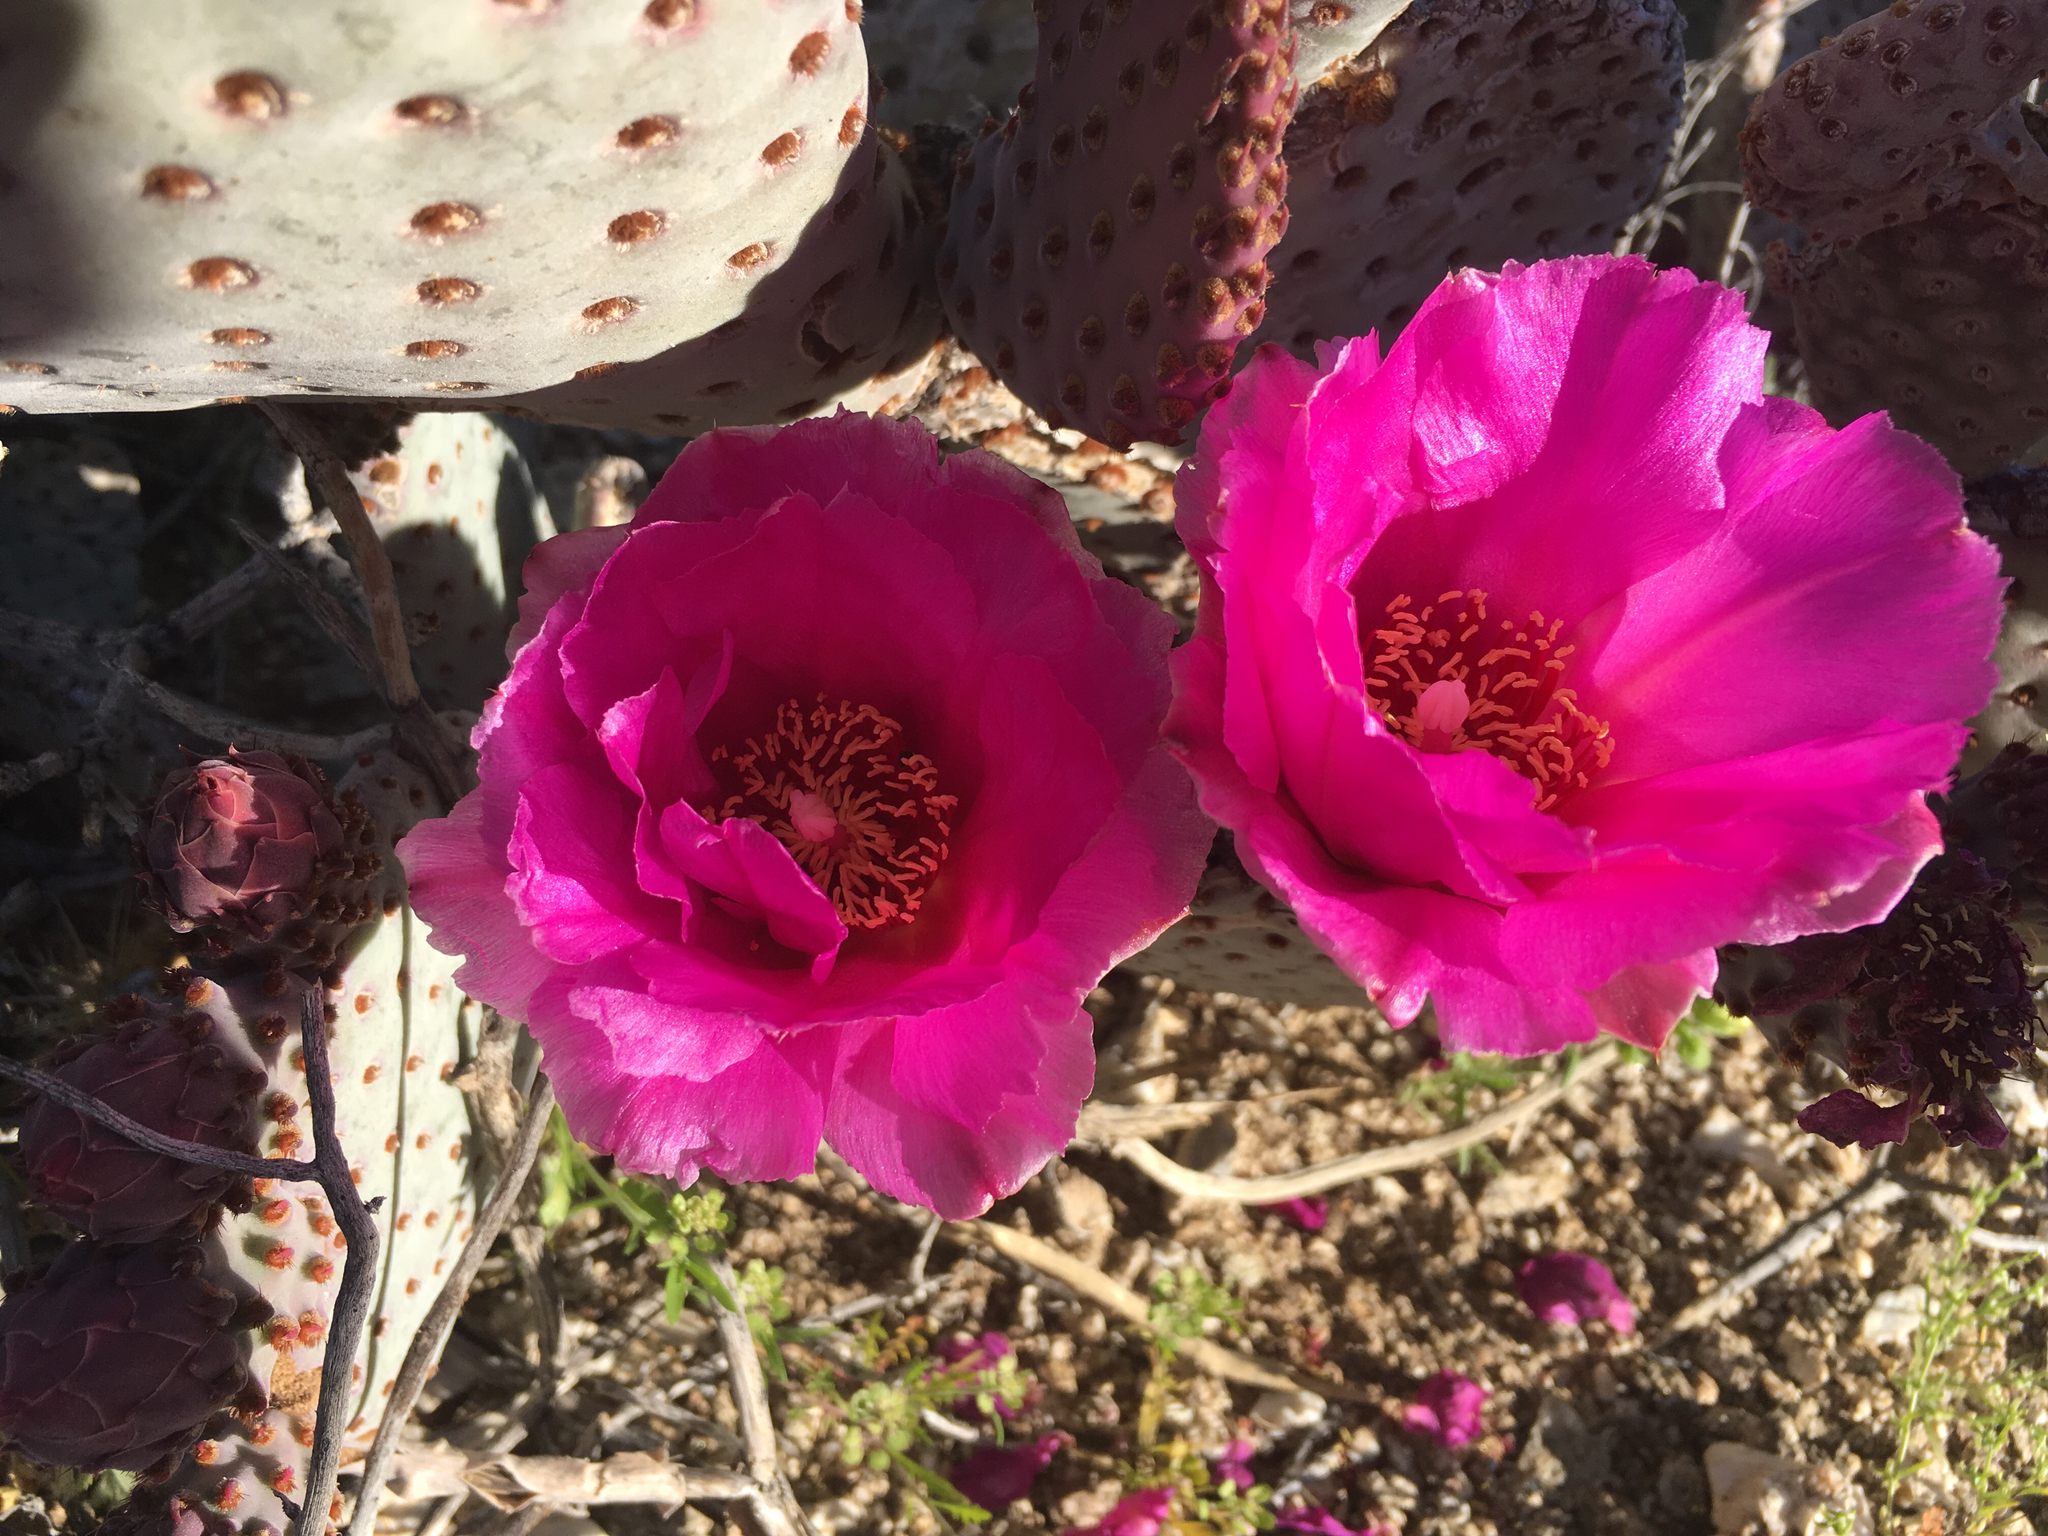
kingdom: Plantae
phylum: Tracheophyta
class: Magnoliopsida
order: Caryophyllales
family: Cactaceae
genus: Opuntia
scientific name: Opuntia basilaris
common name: Beavertail prickly-pear
